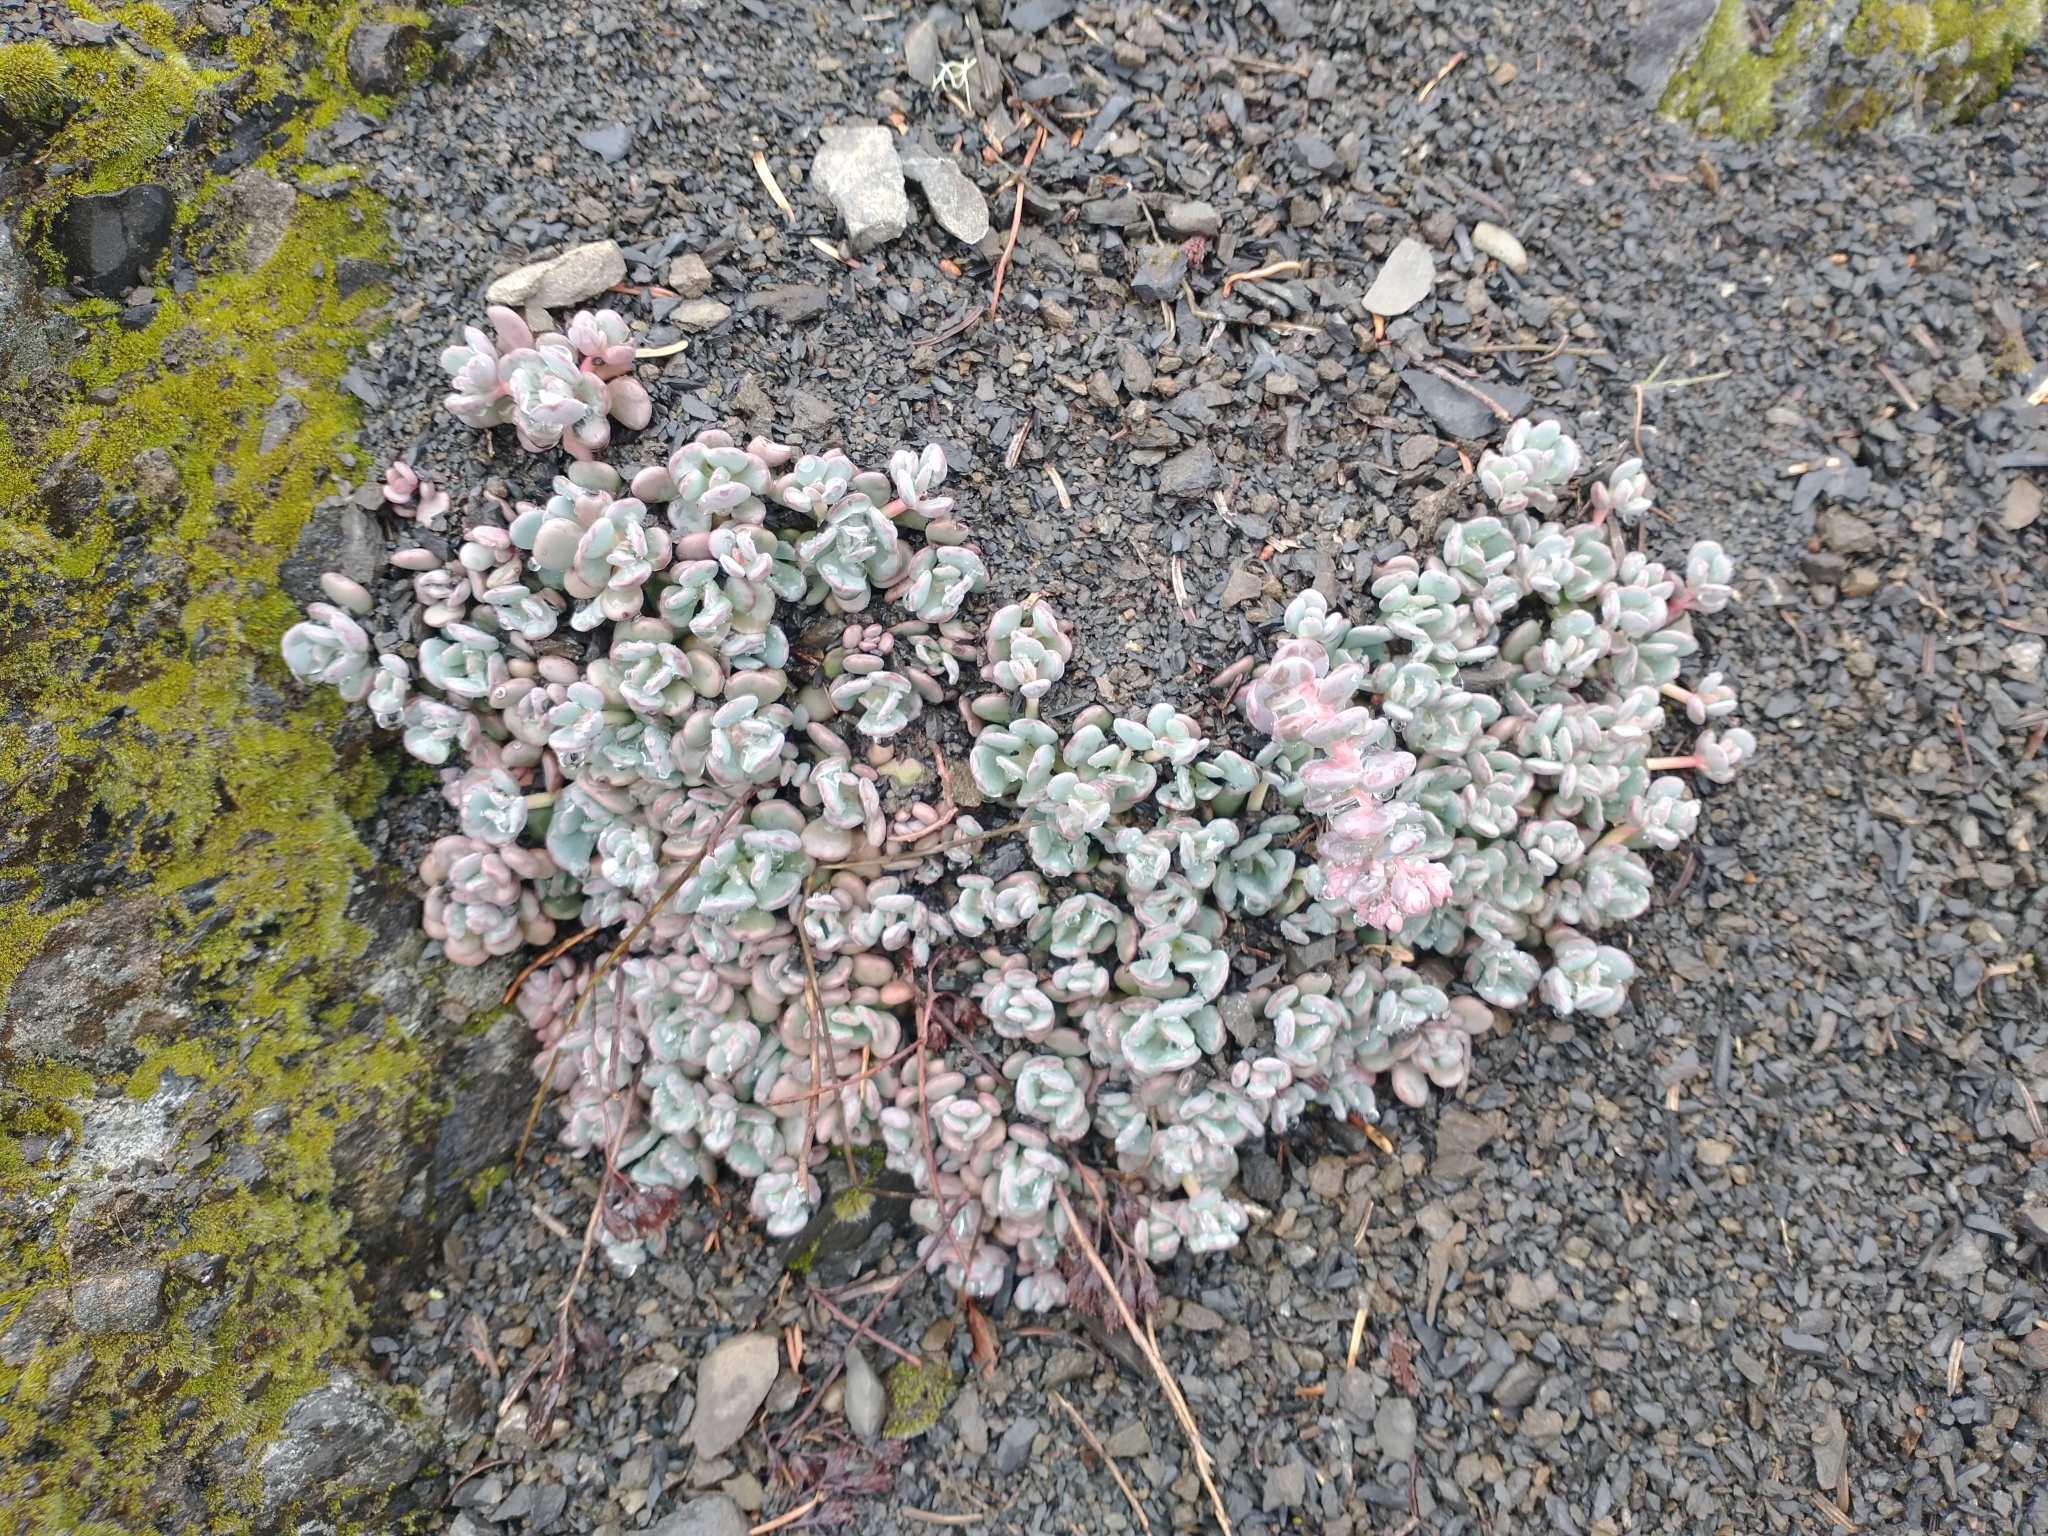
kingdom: Plantae
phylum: Tracheophyta
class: Magnoliopsida
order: Saxifragales
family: Crassulaceae
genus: Sedum
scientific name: Sedum flavidum
